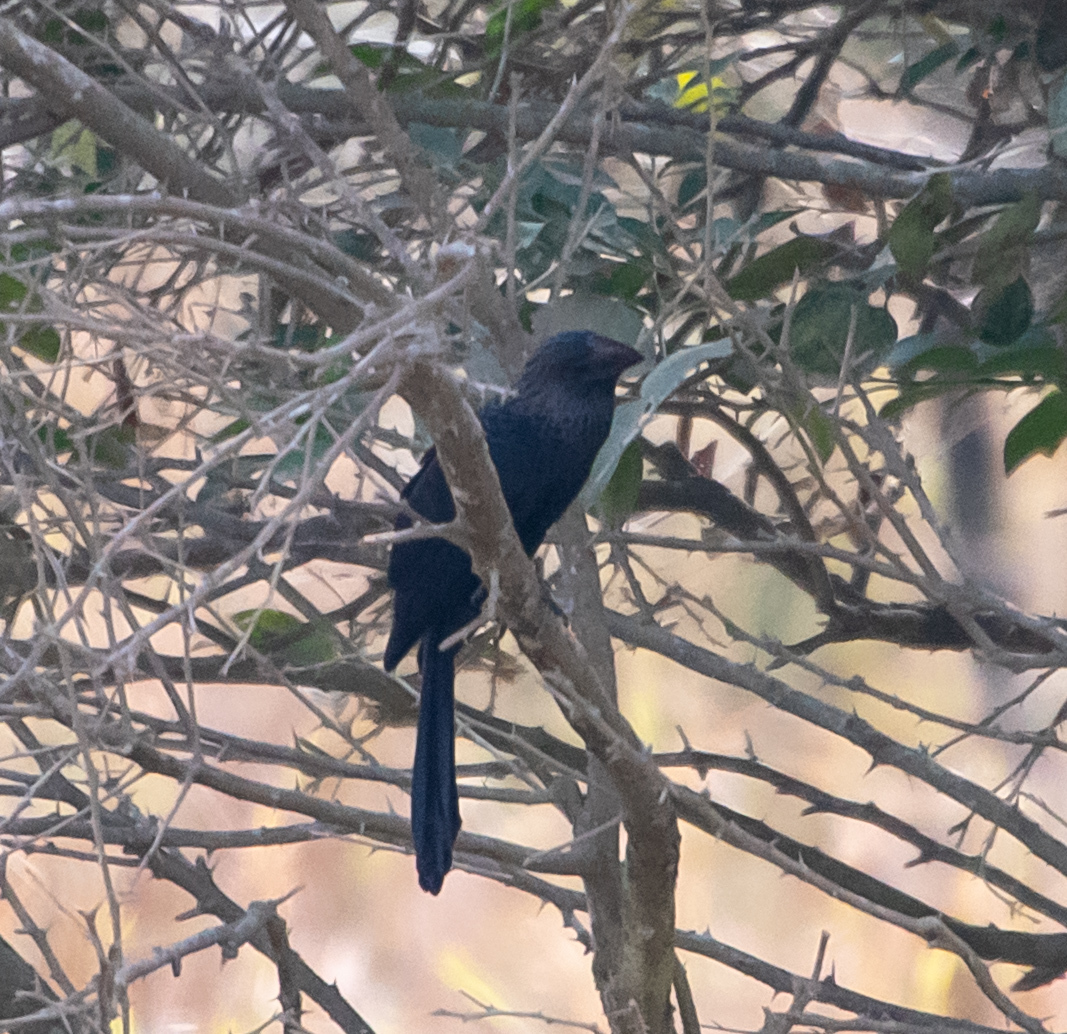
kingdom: Animalia
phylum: Chordata
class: Aves
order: Cuculiformes
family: Cuculidae
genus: Crotophaga
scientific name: Crotophaga ani
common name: Smooth-billed ani
